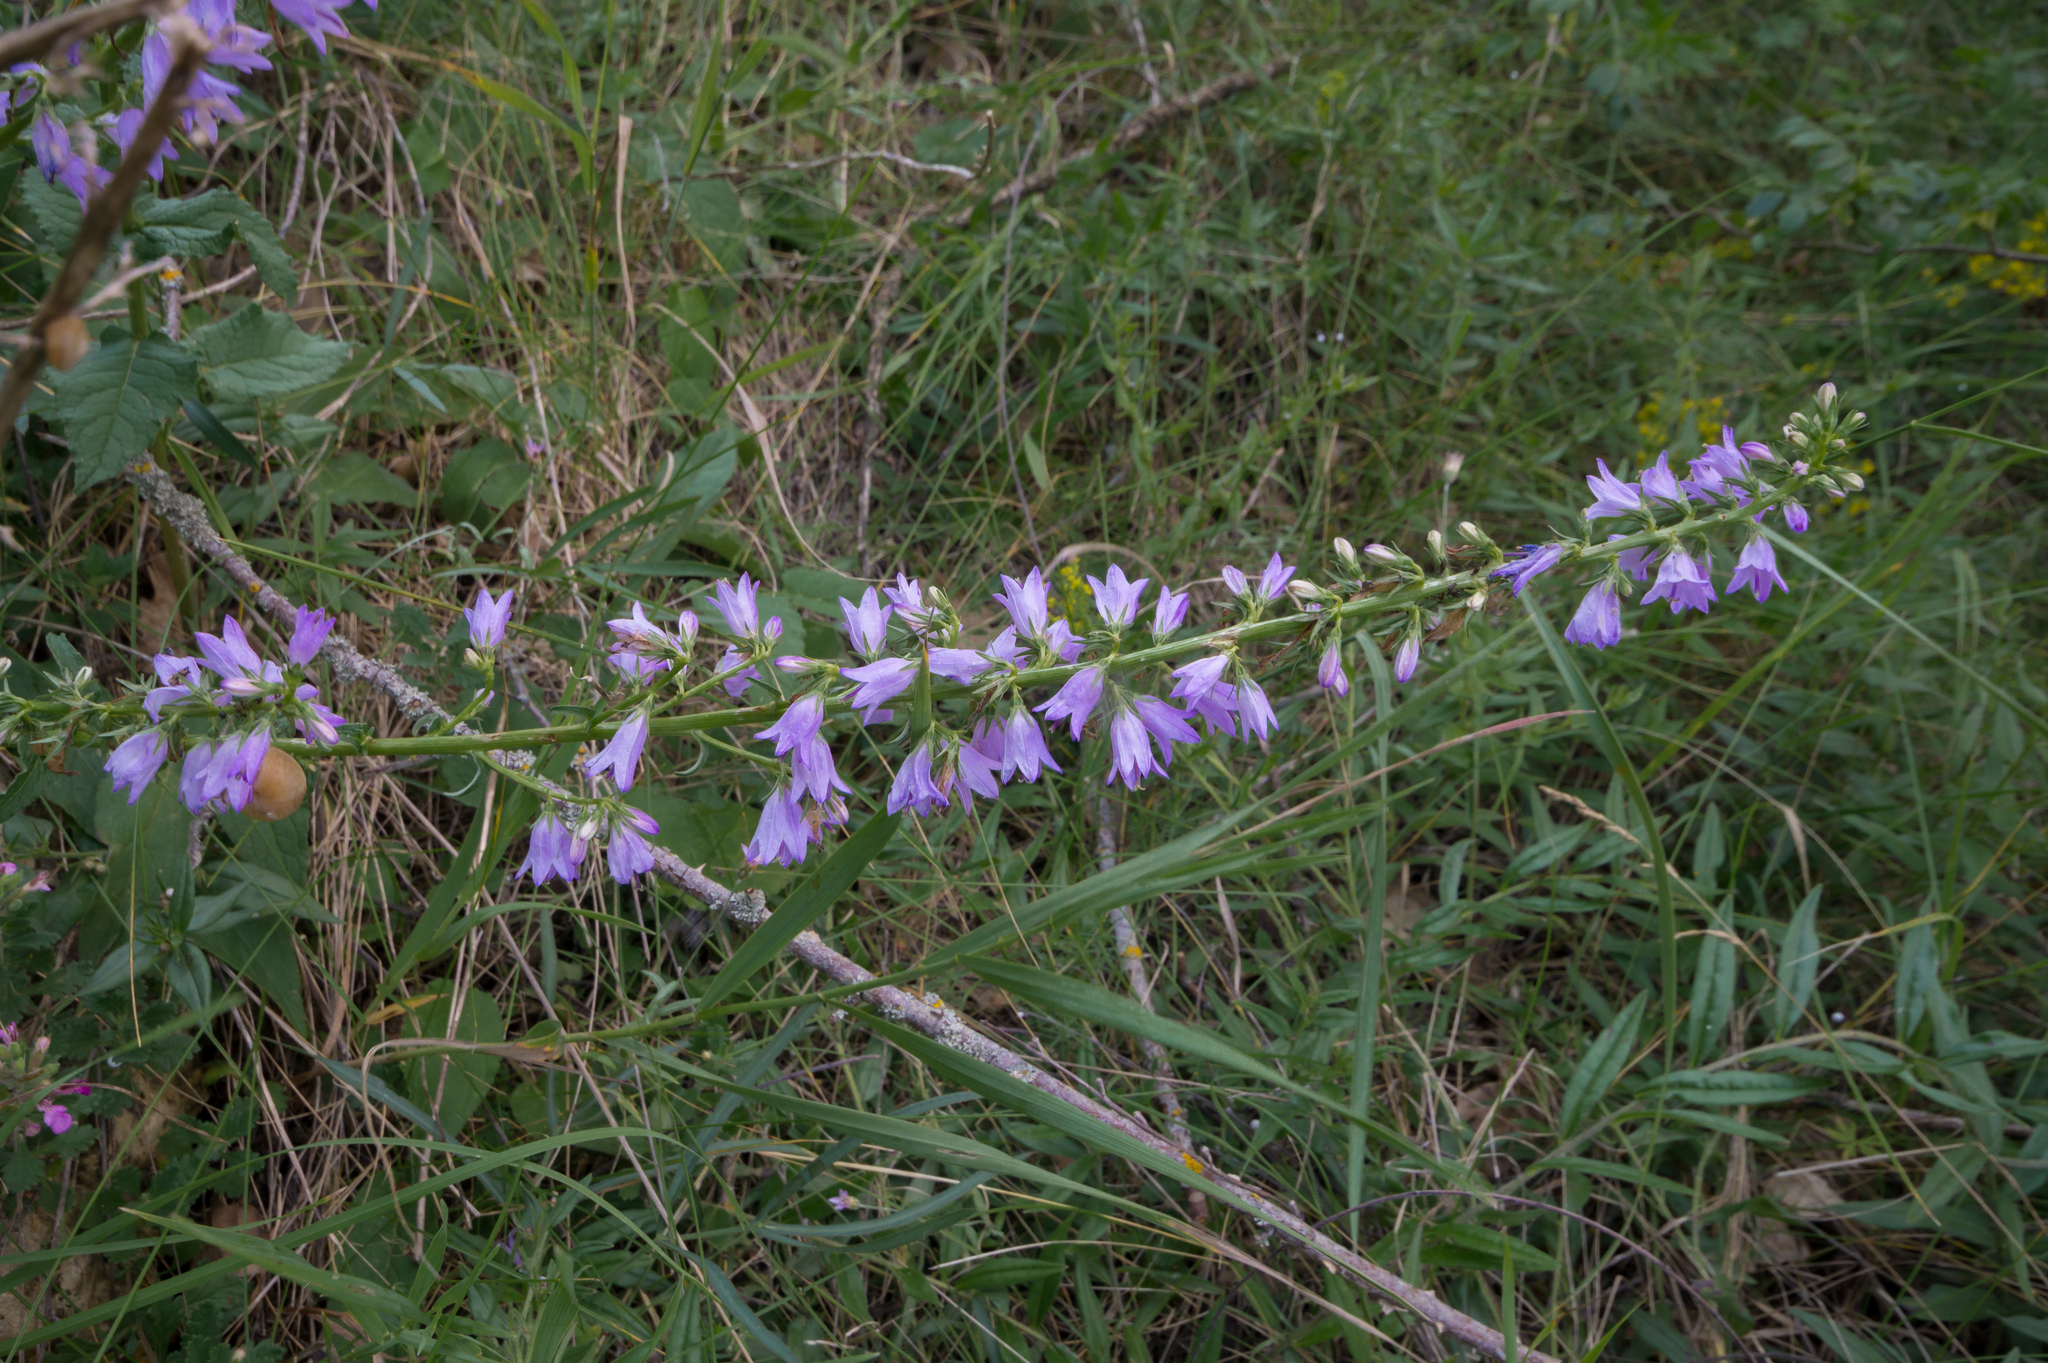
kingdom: Plantae
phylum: Tracheophyta
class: Magnoliopsida
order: Asterales
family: Campanulaceae
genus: Campanula
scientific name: Campanula bononiensis
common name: Pale bellflower
